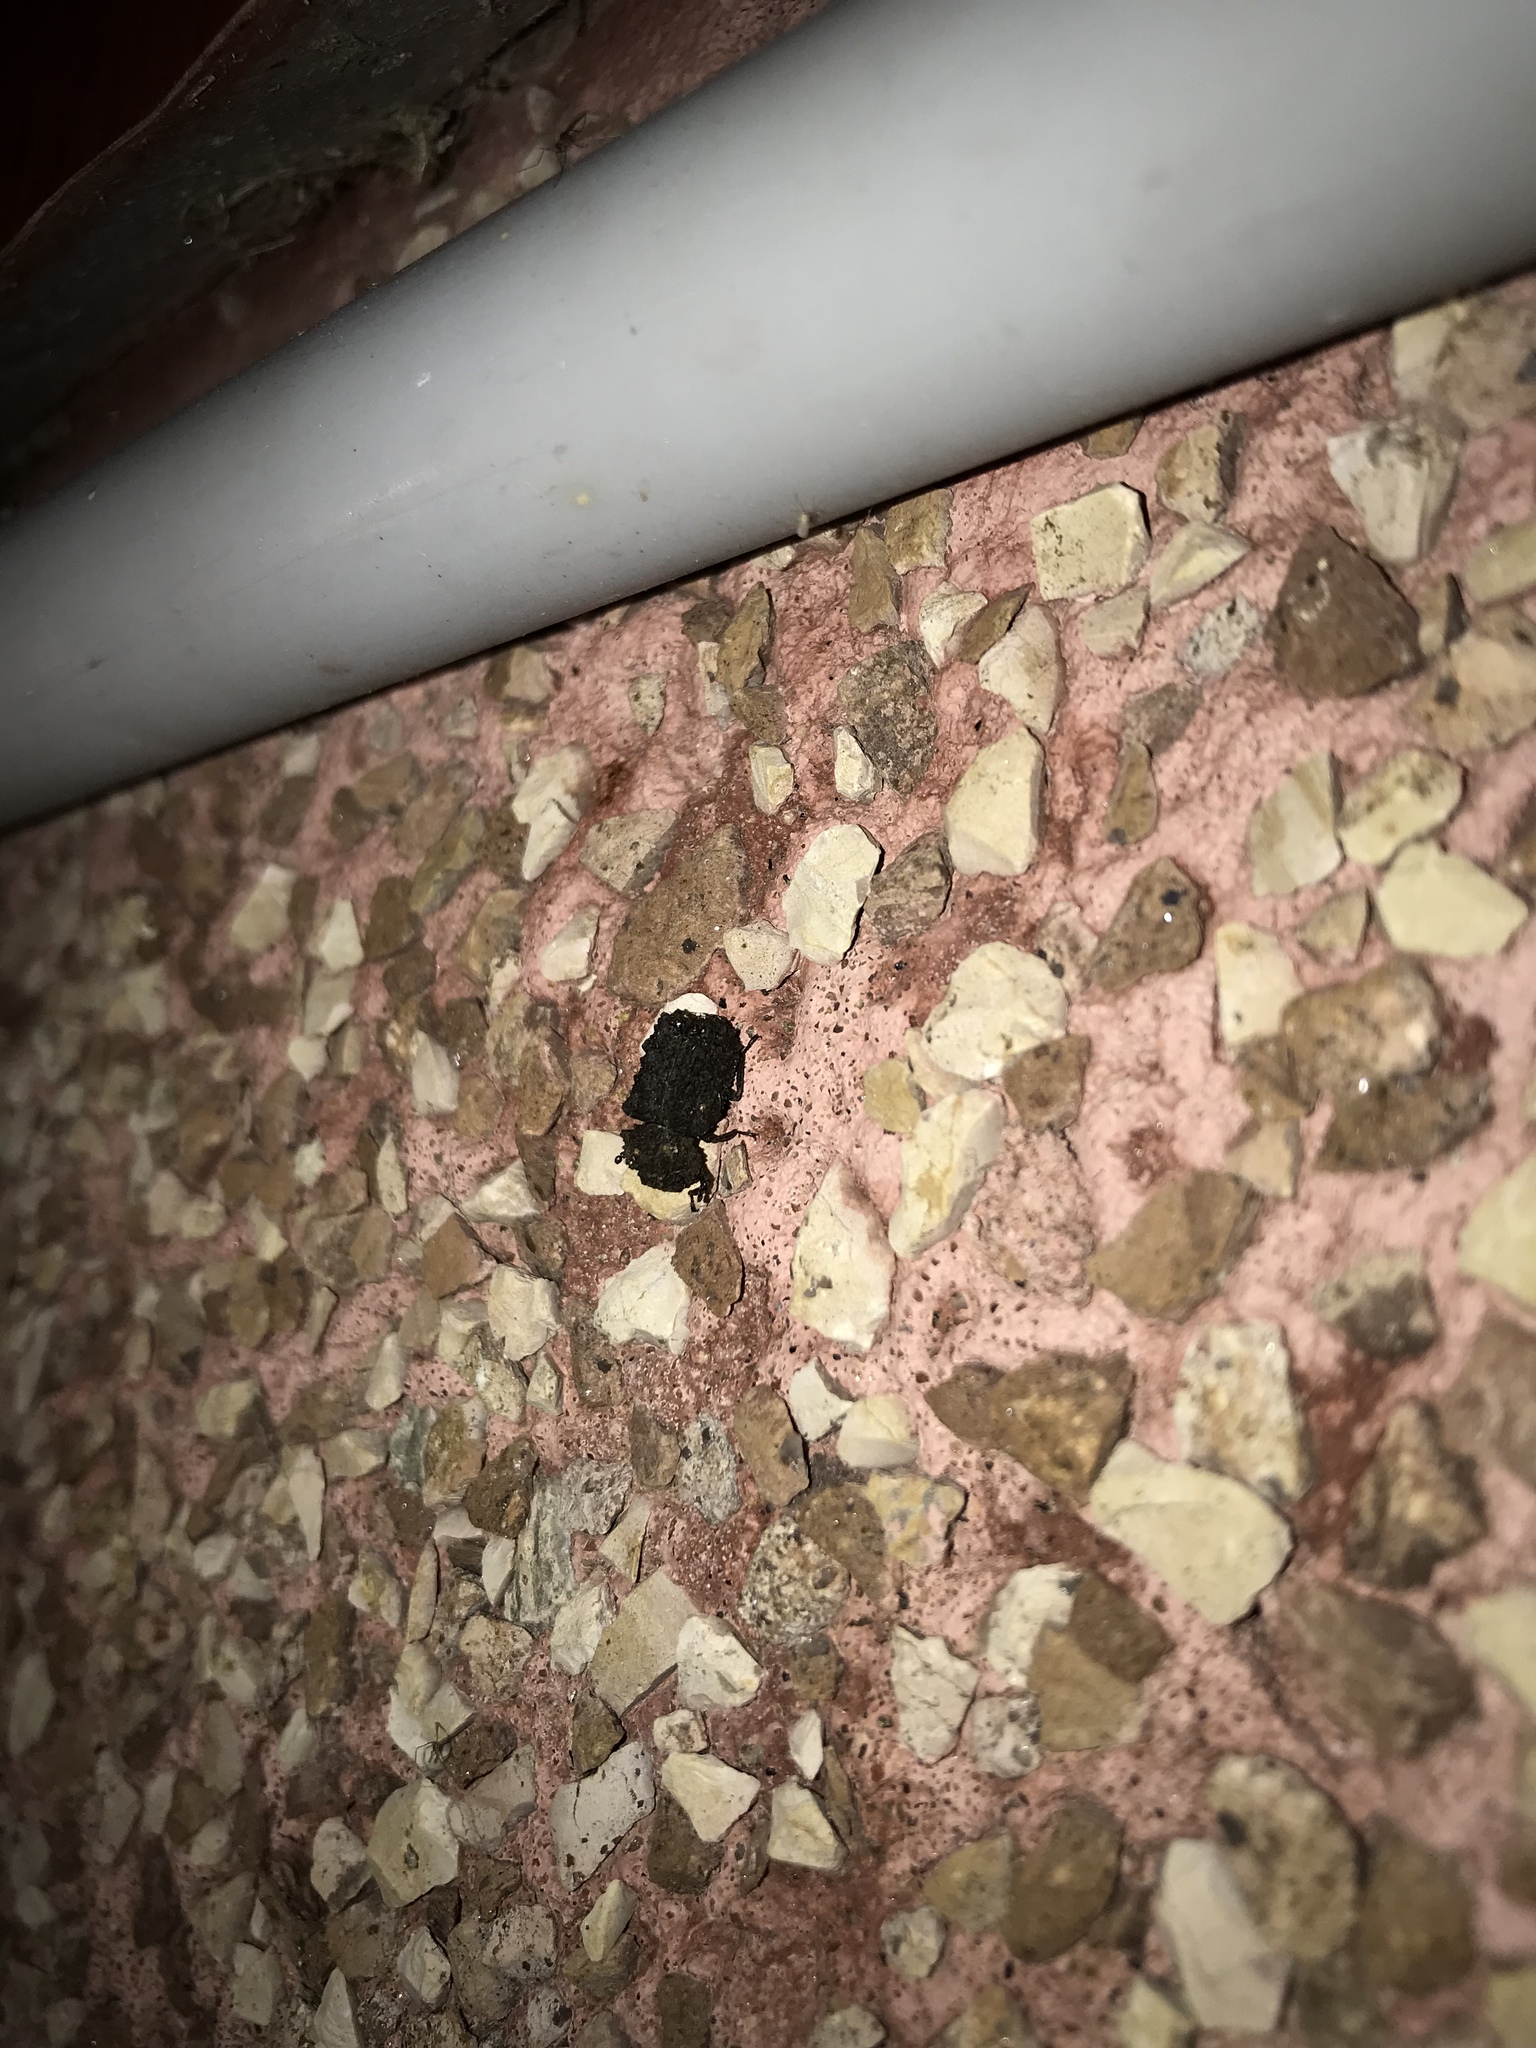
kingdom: Animalia
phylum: Arthropoda
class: Insecta
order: Coleoptera
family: Tenebrionidae
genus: Gnatocerus
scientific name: Gnatocerus cornutus
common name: Broad-horned flour beetle
